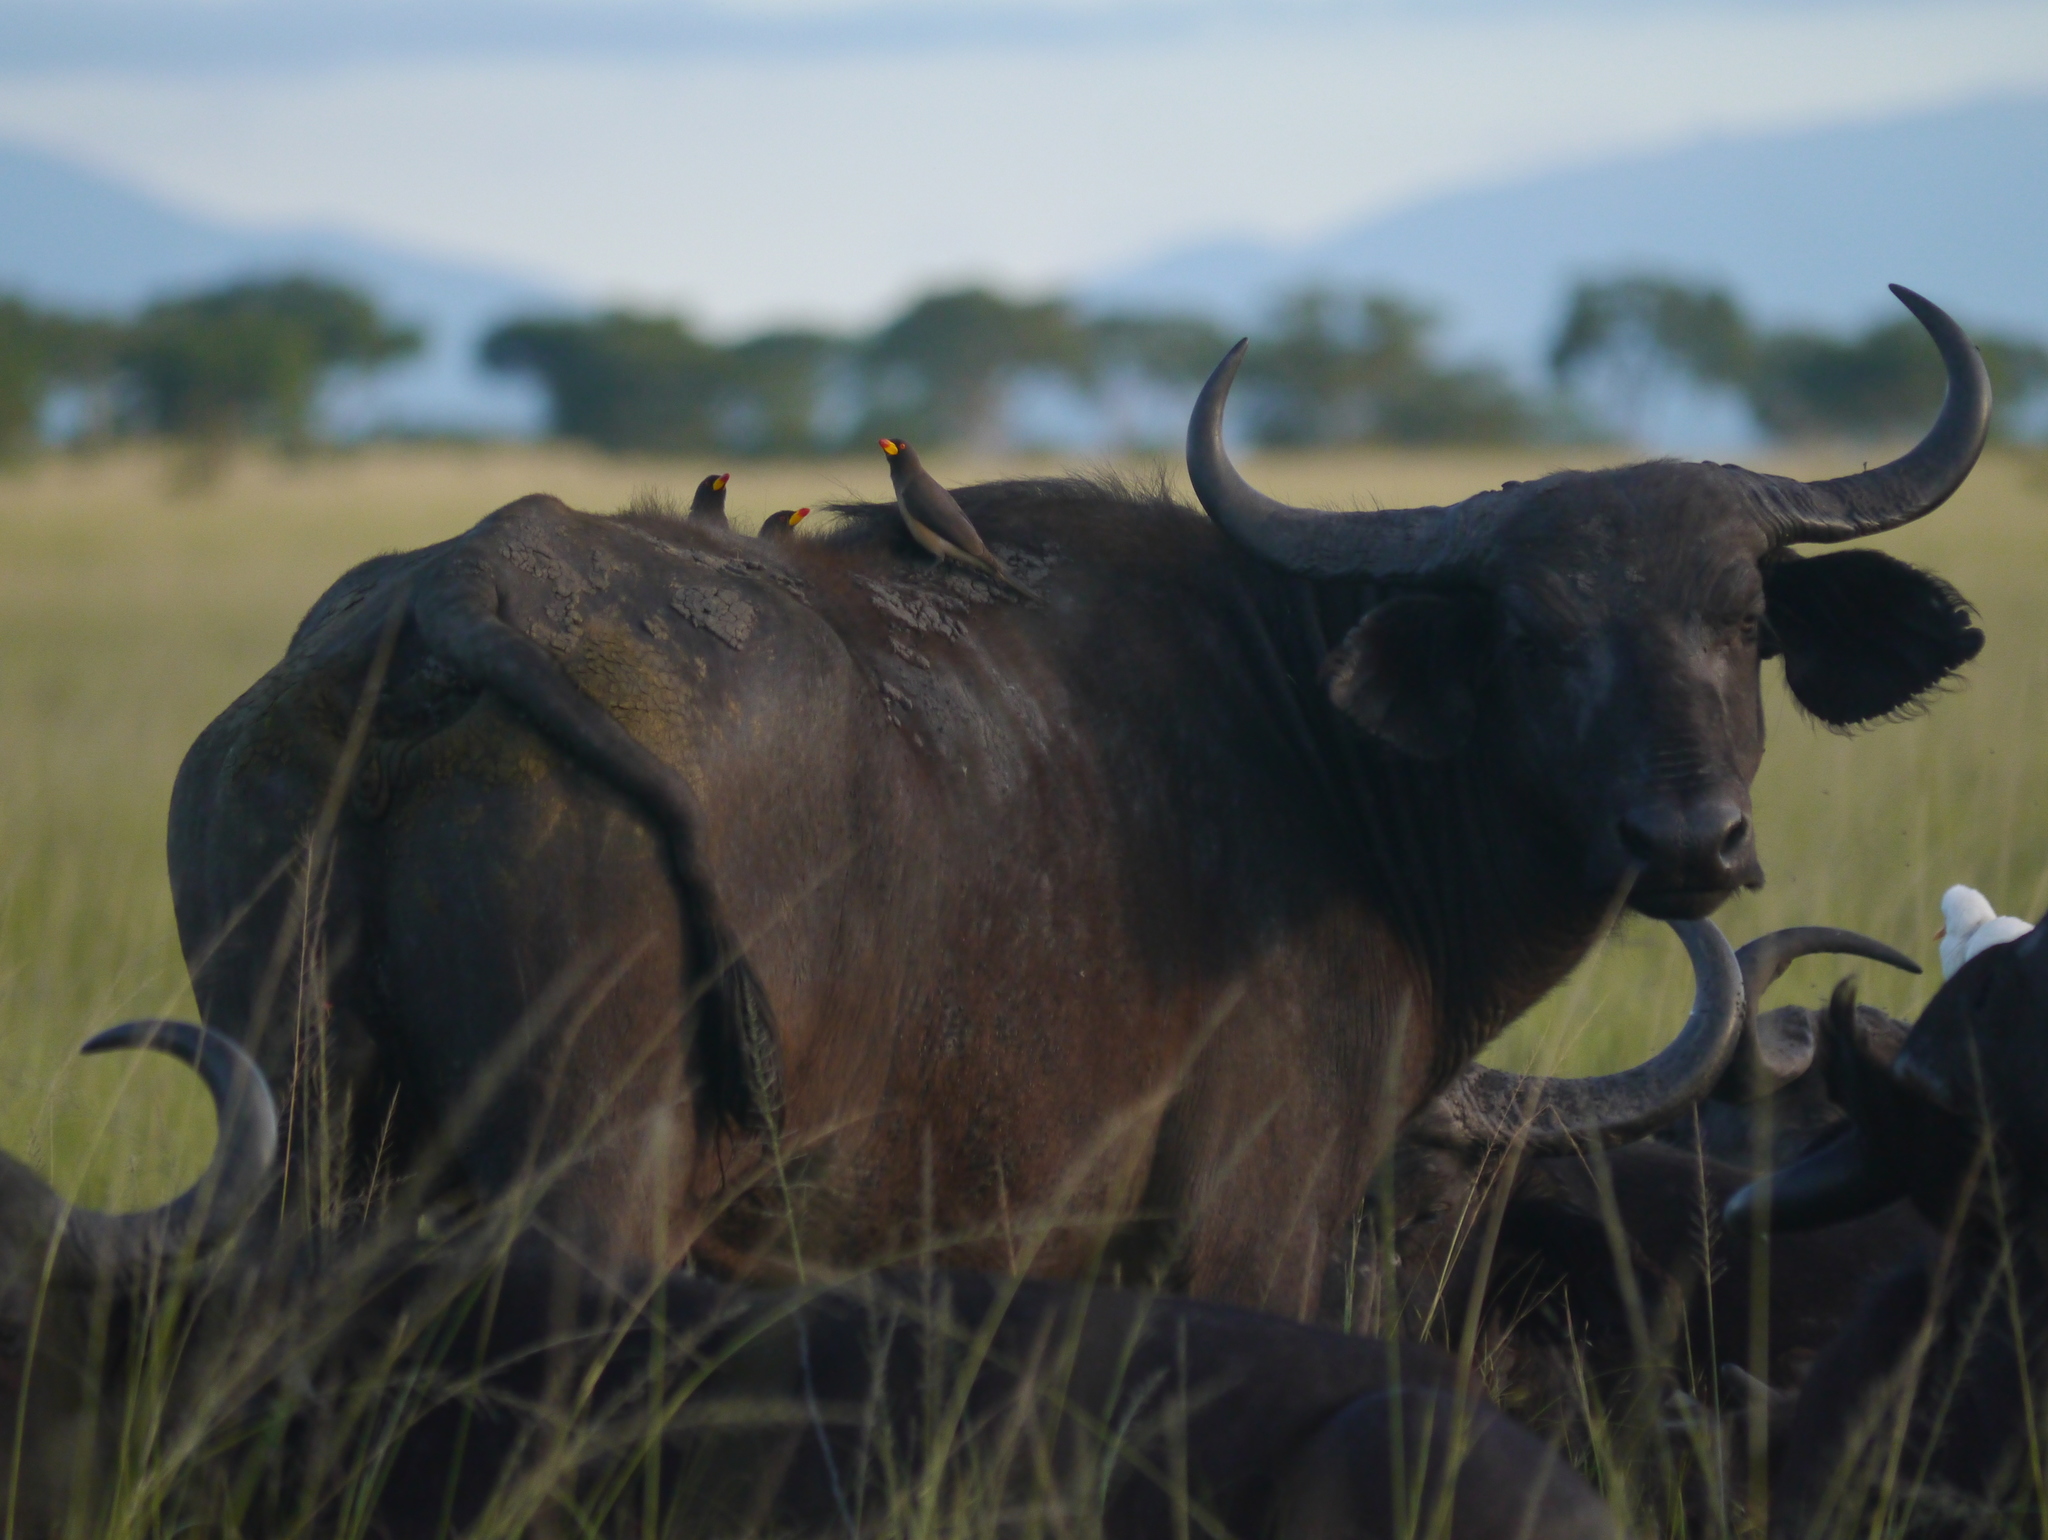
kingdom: Animalia
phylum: Chordata
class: Aves
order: Passeriformes
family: Buphagidae
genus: Buphagus
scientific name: Buphagus africanus
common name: Yellow-billed oxpecker
